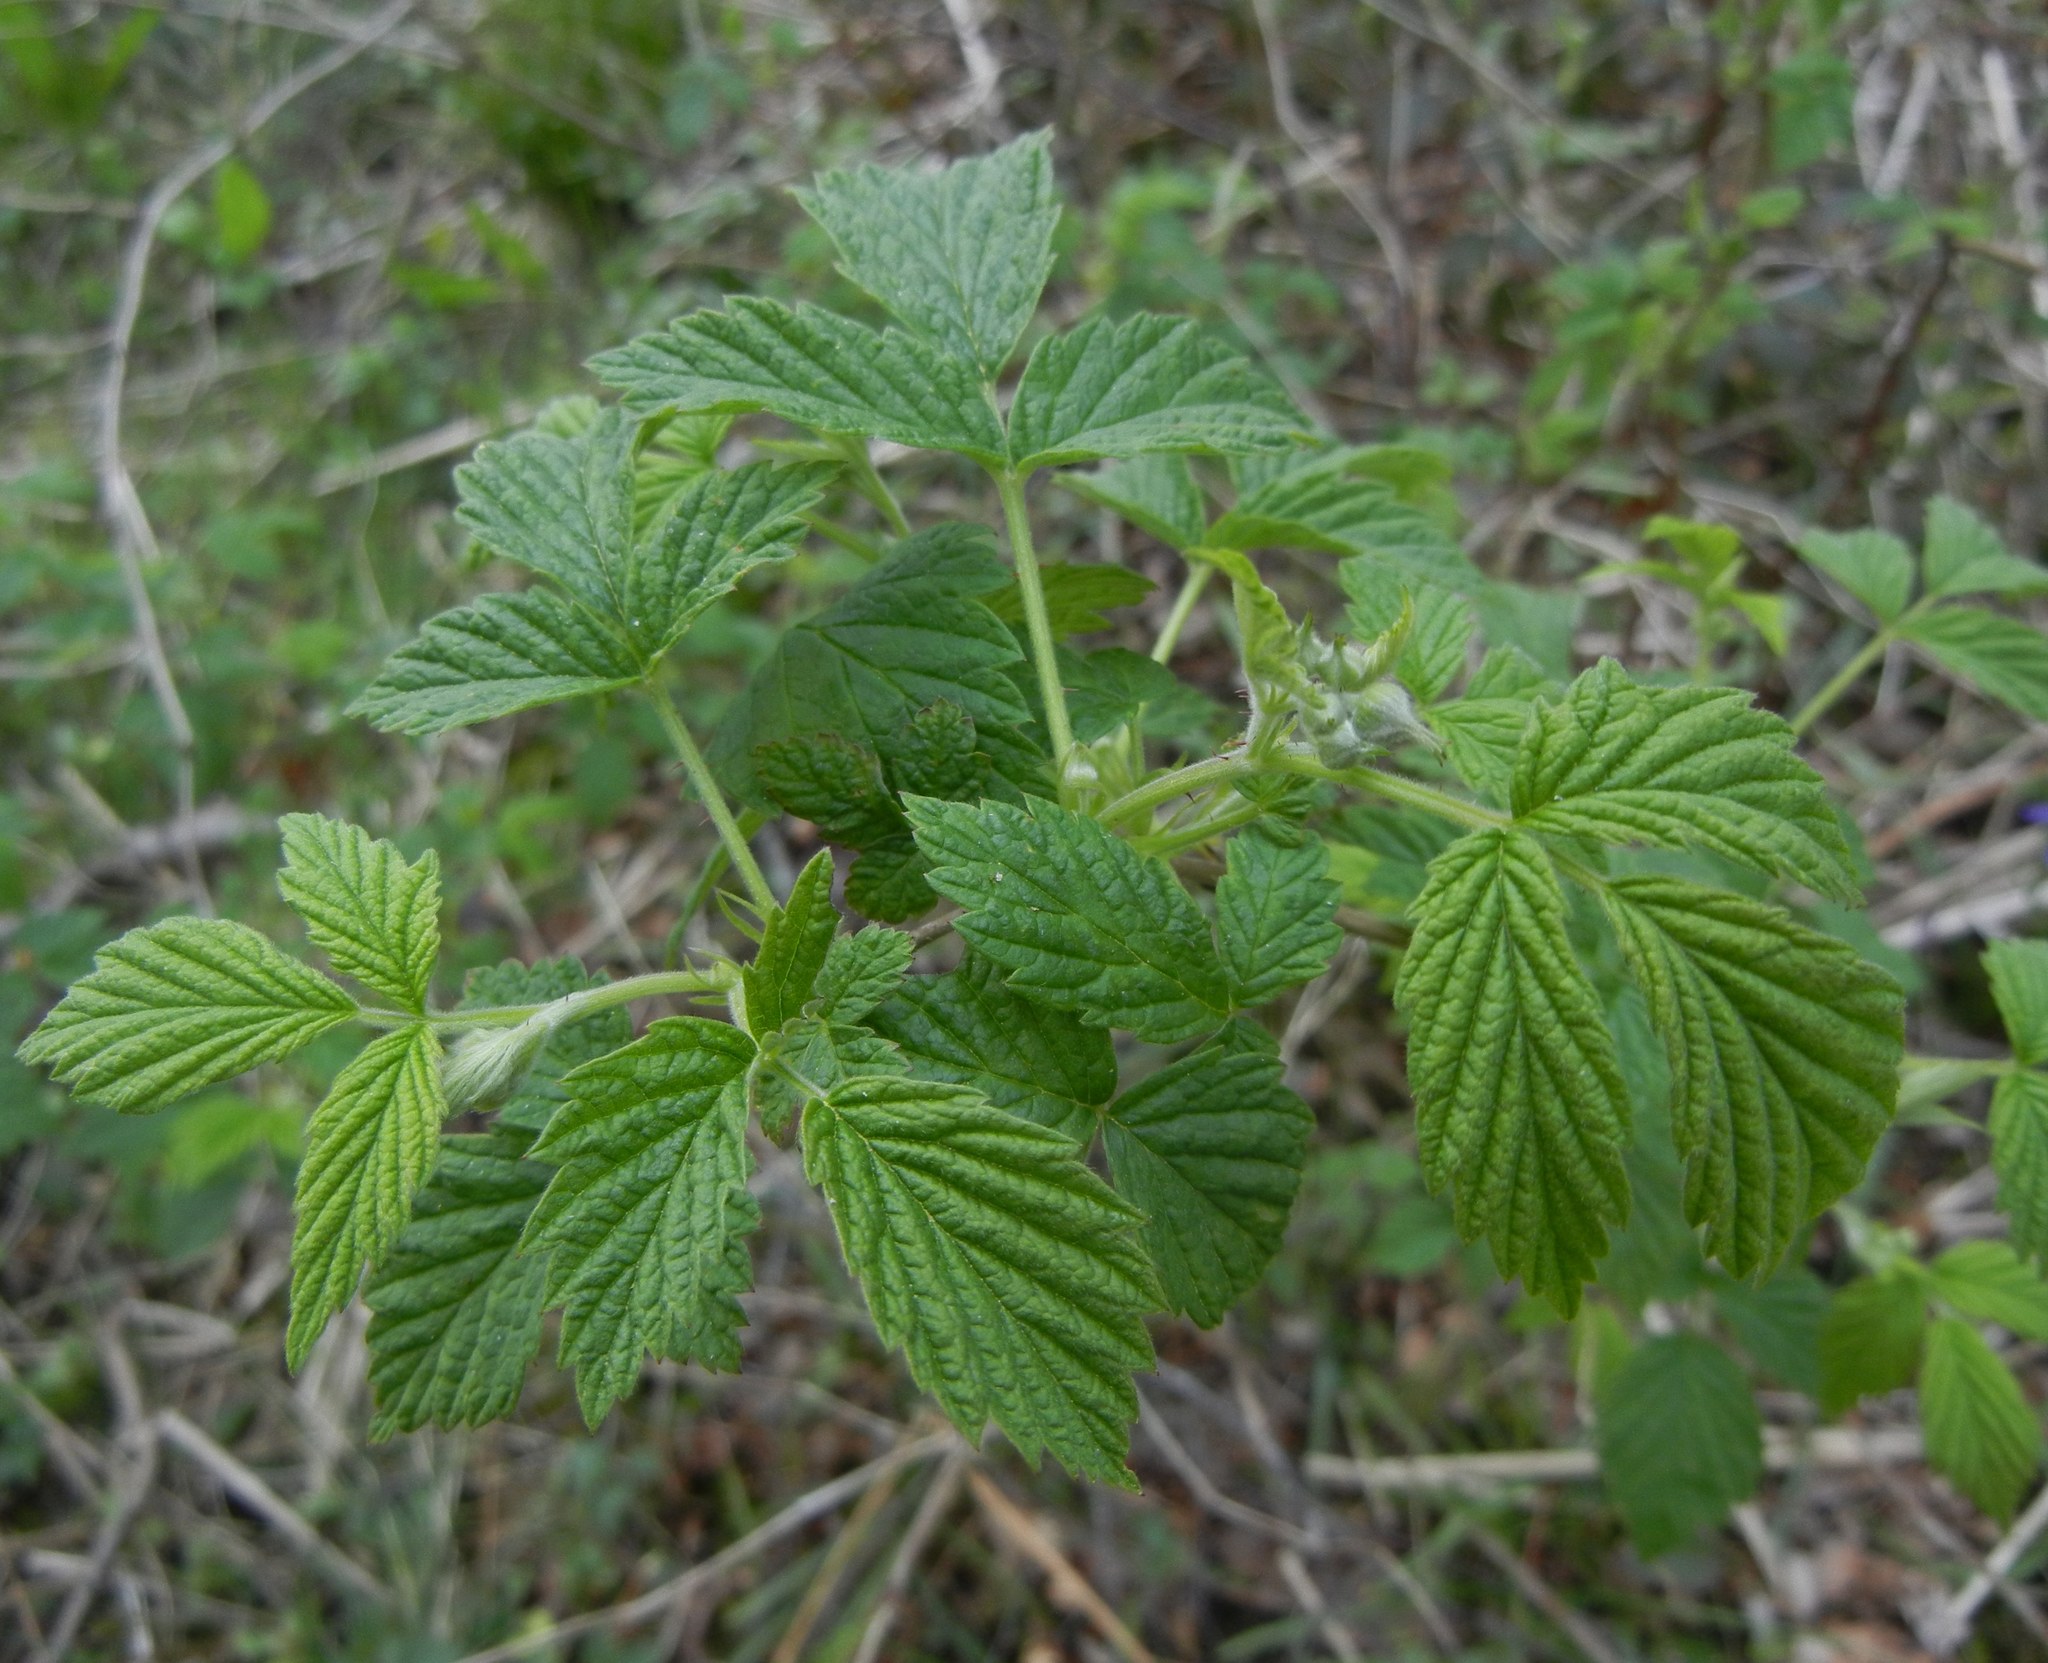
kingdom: Plantae
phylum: Tracheophyta
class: Magnoliopsida
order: Rosales
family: Rosaceae
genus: Rubus
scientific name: Rubus idaeus
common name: Raspberry
